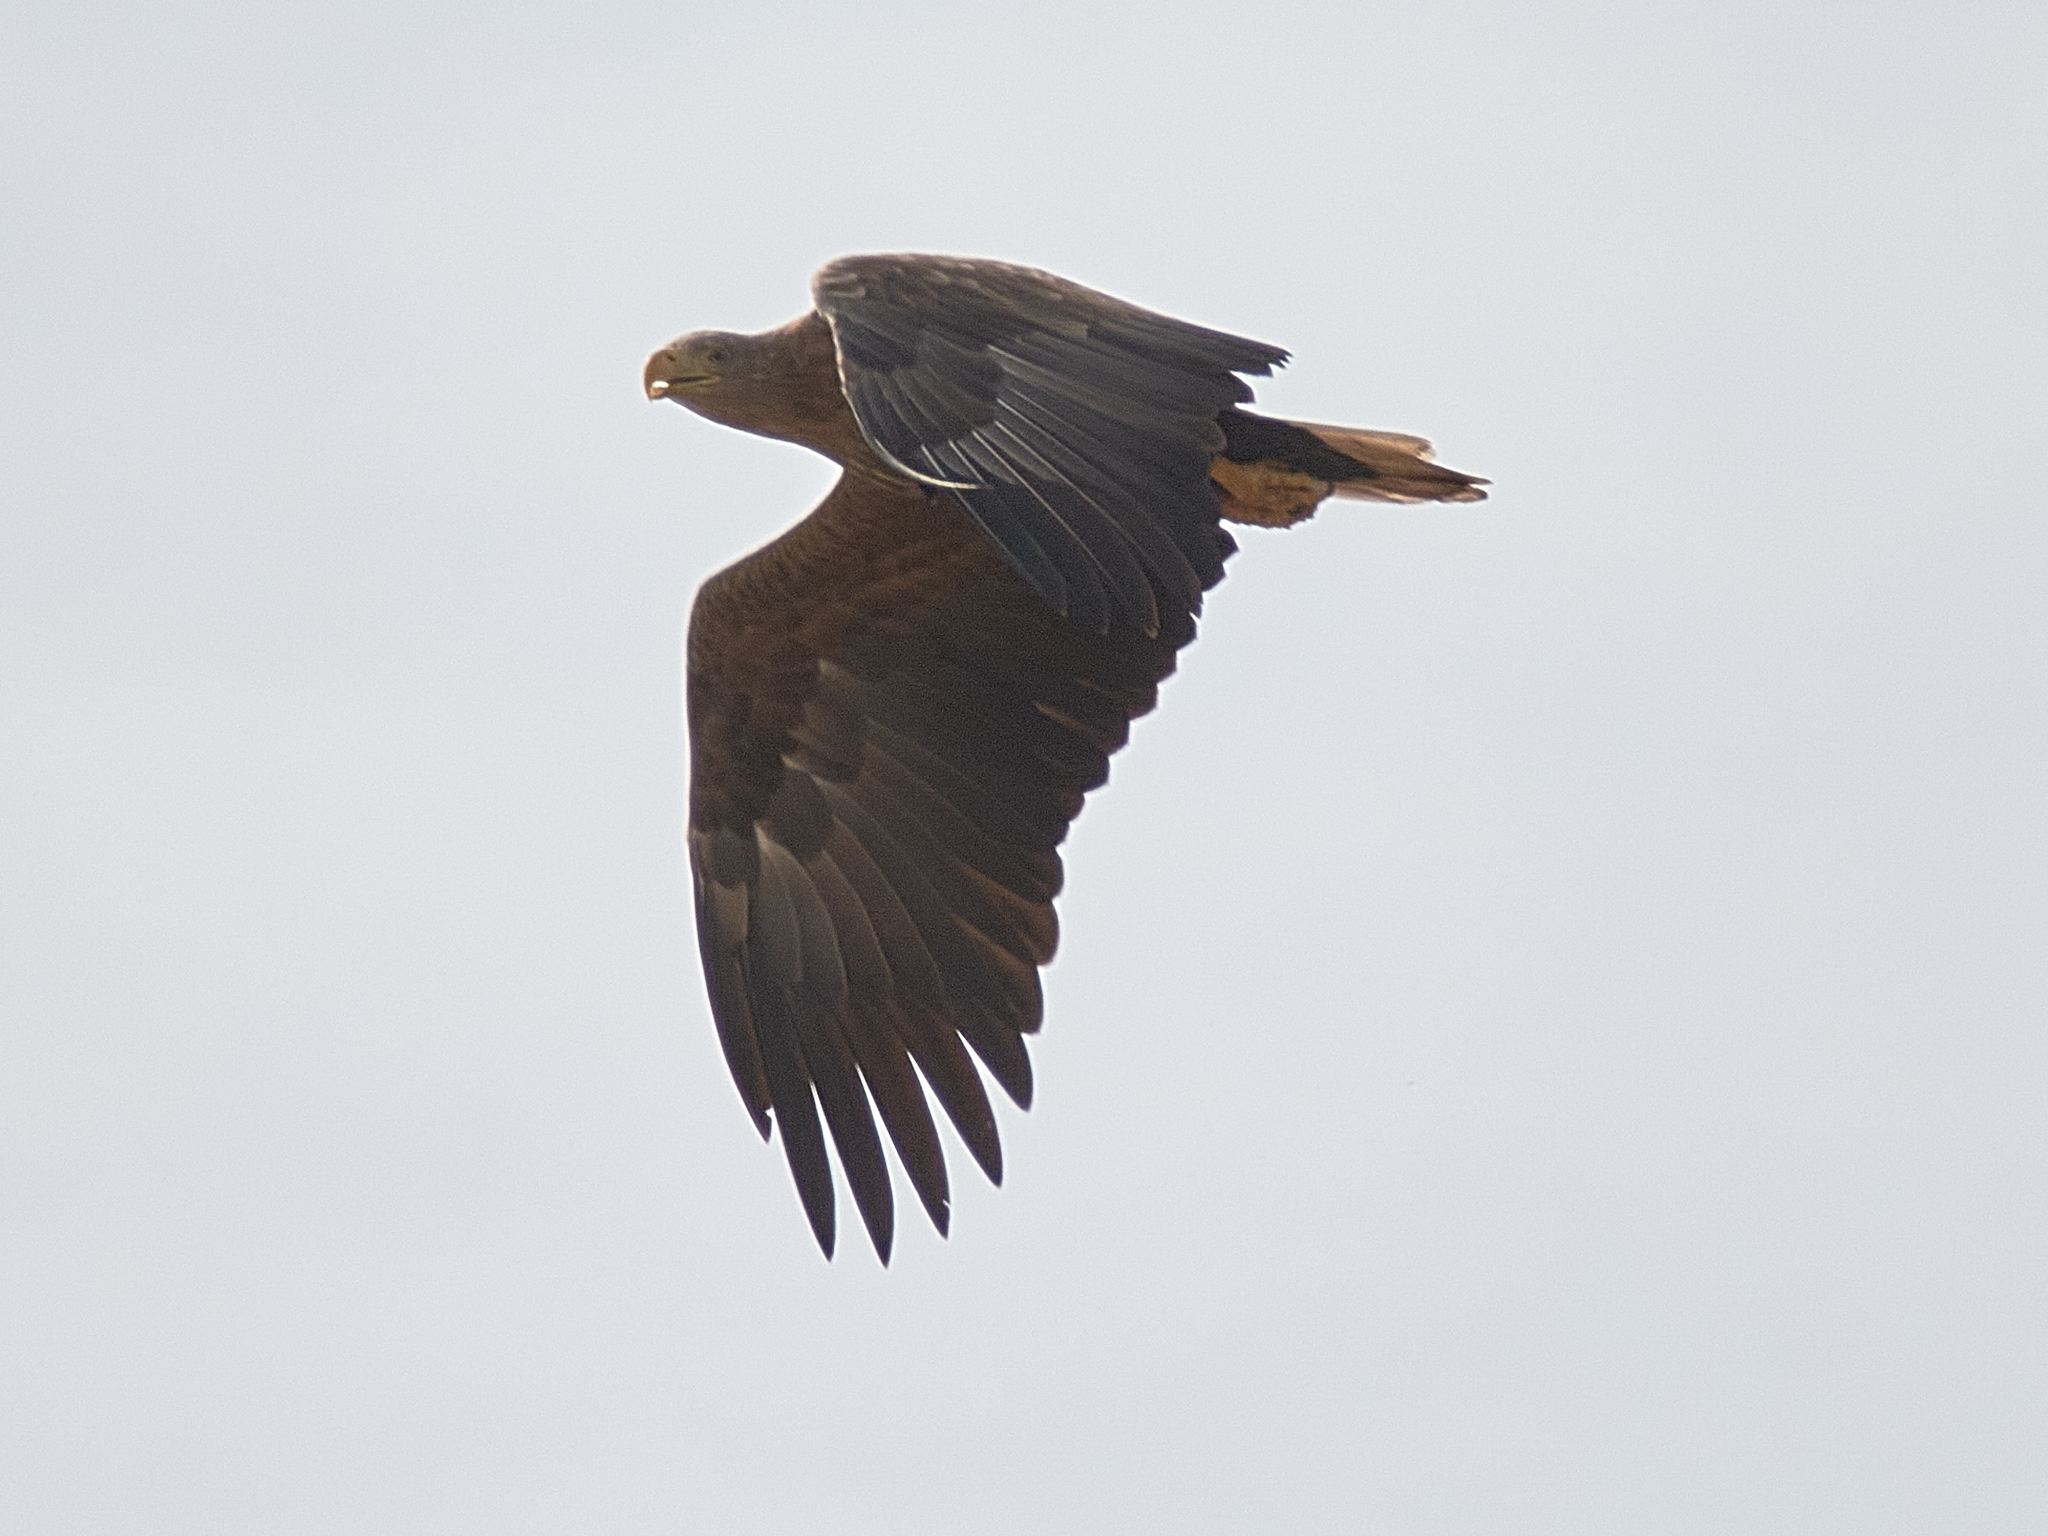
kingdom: Animalia
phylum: Chordata
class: Aves
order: Accipitriformes
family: Accipitridae
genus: Haliaeetus
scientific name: Haliaeetus albicilla
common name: White-tailed eagle
